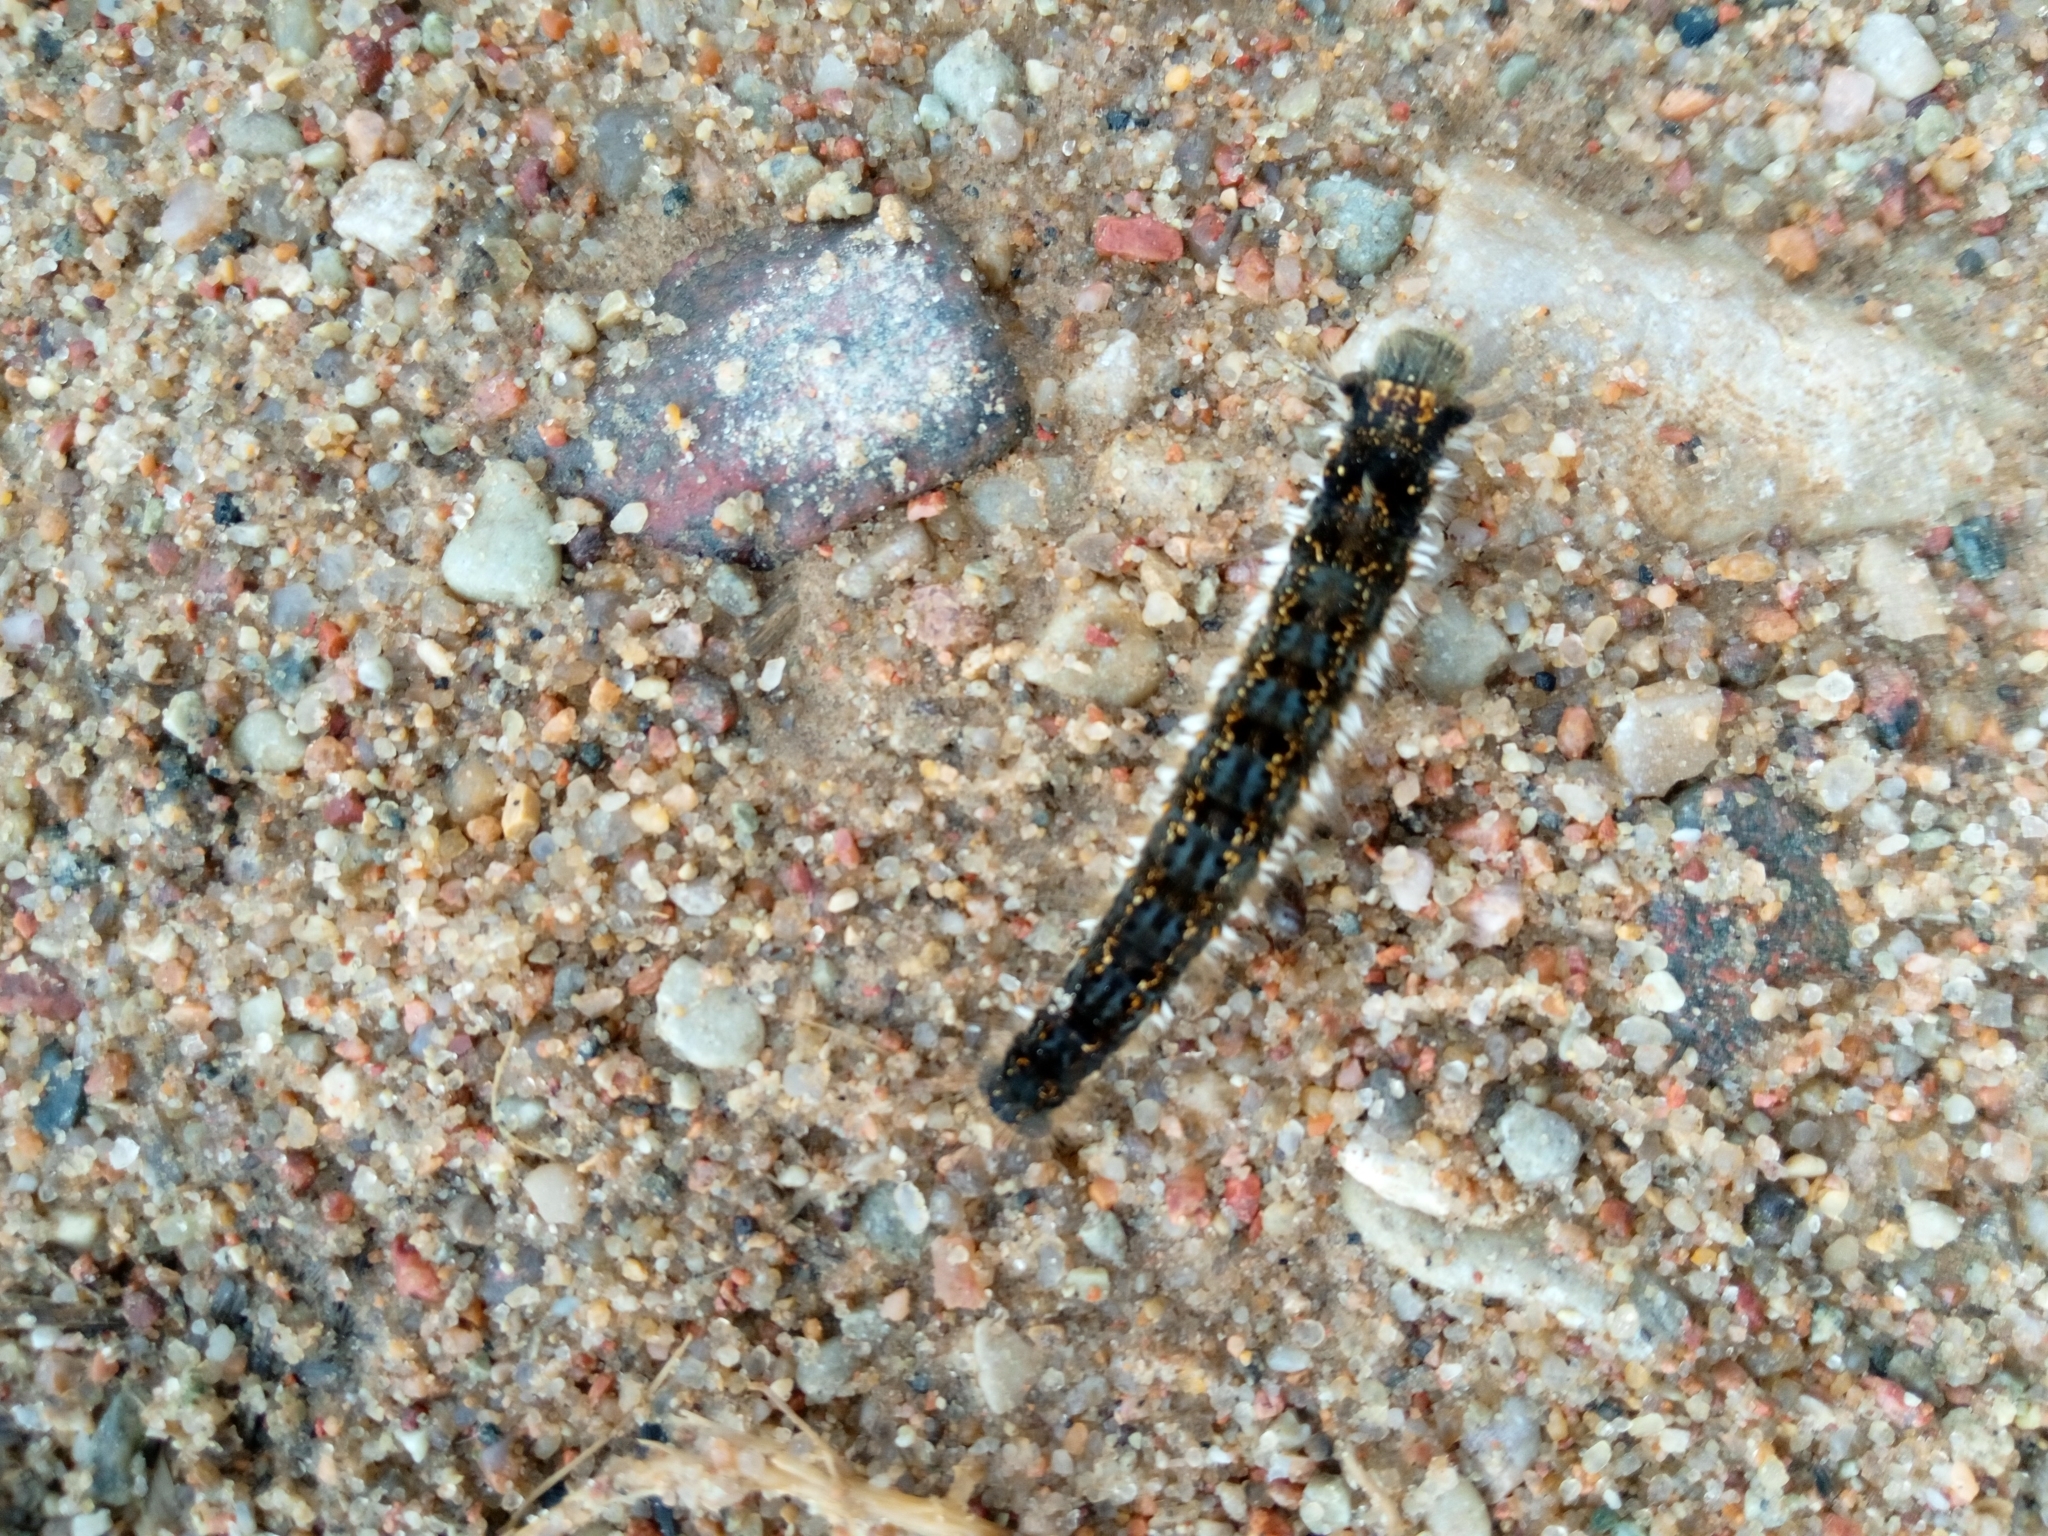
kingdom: Animalia
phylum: Arthropoda
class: Insecta
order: Lepidoptera
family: Lasiocampidae
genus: Euthrix
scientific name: Euthrix potatoria
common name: Drinker
